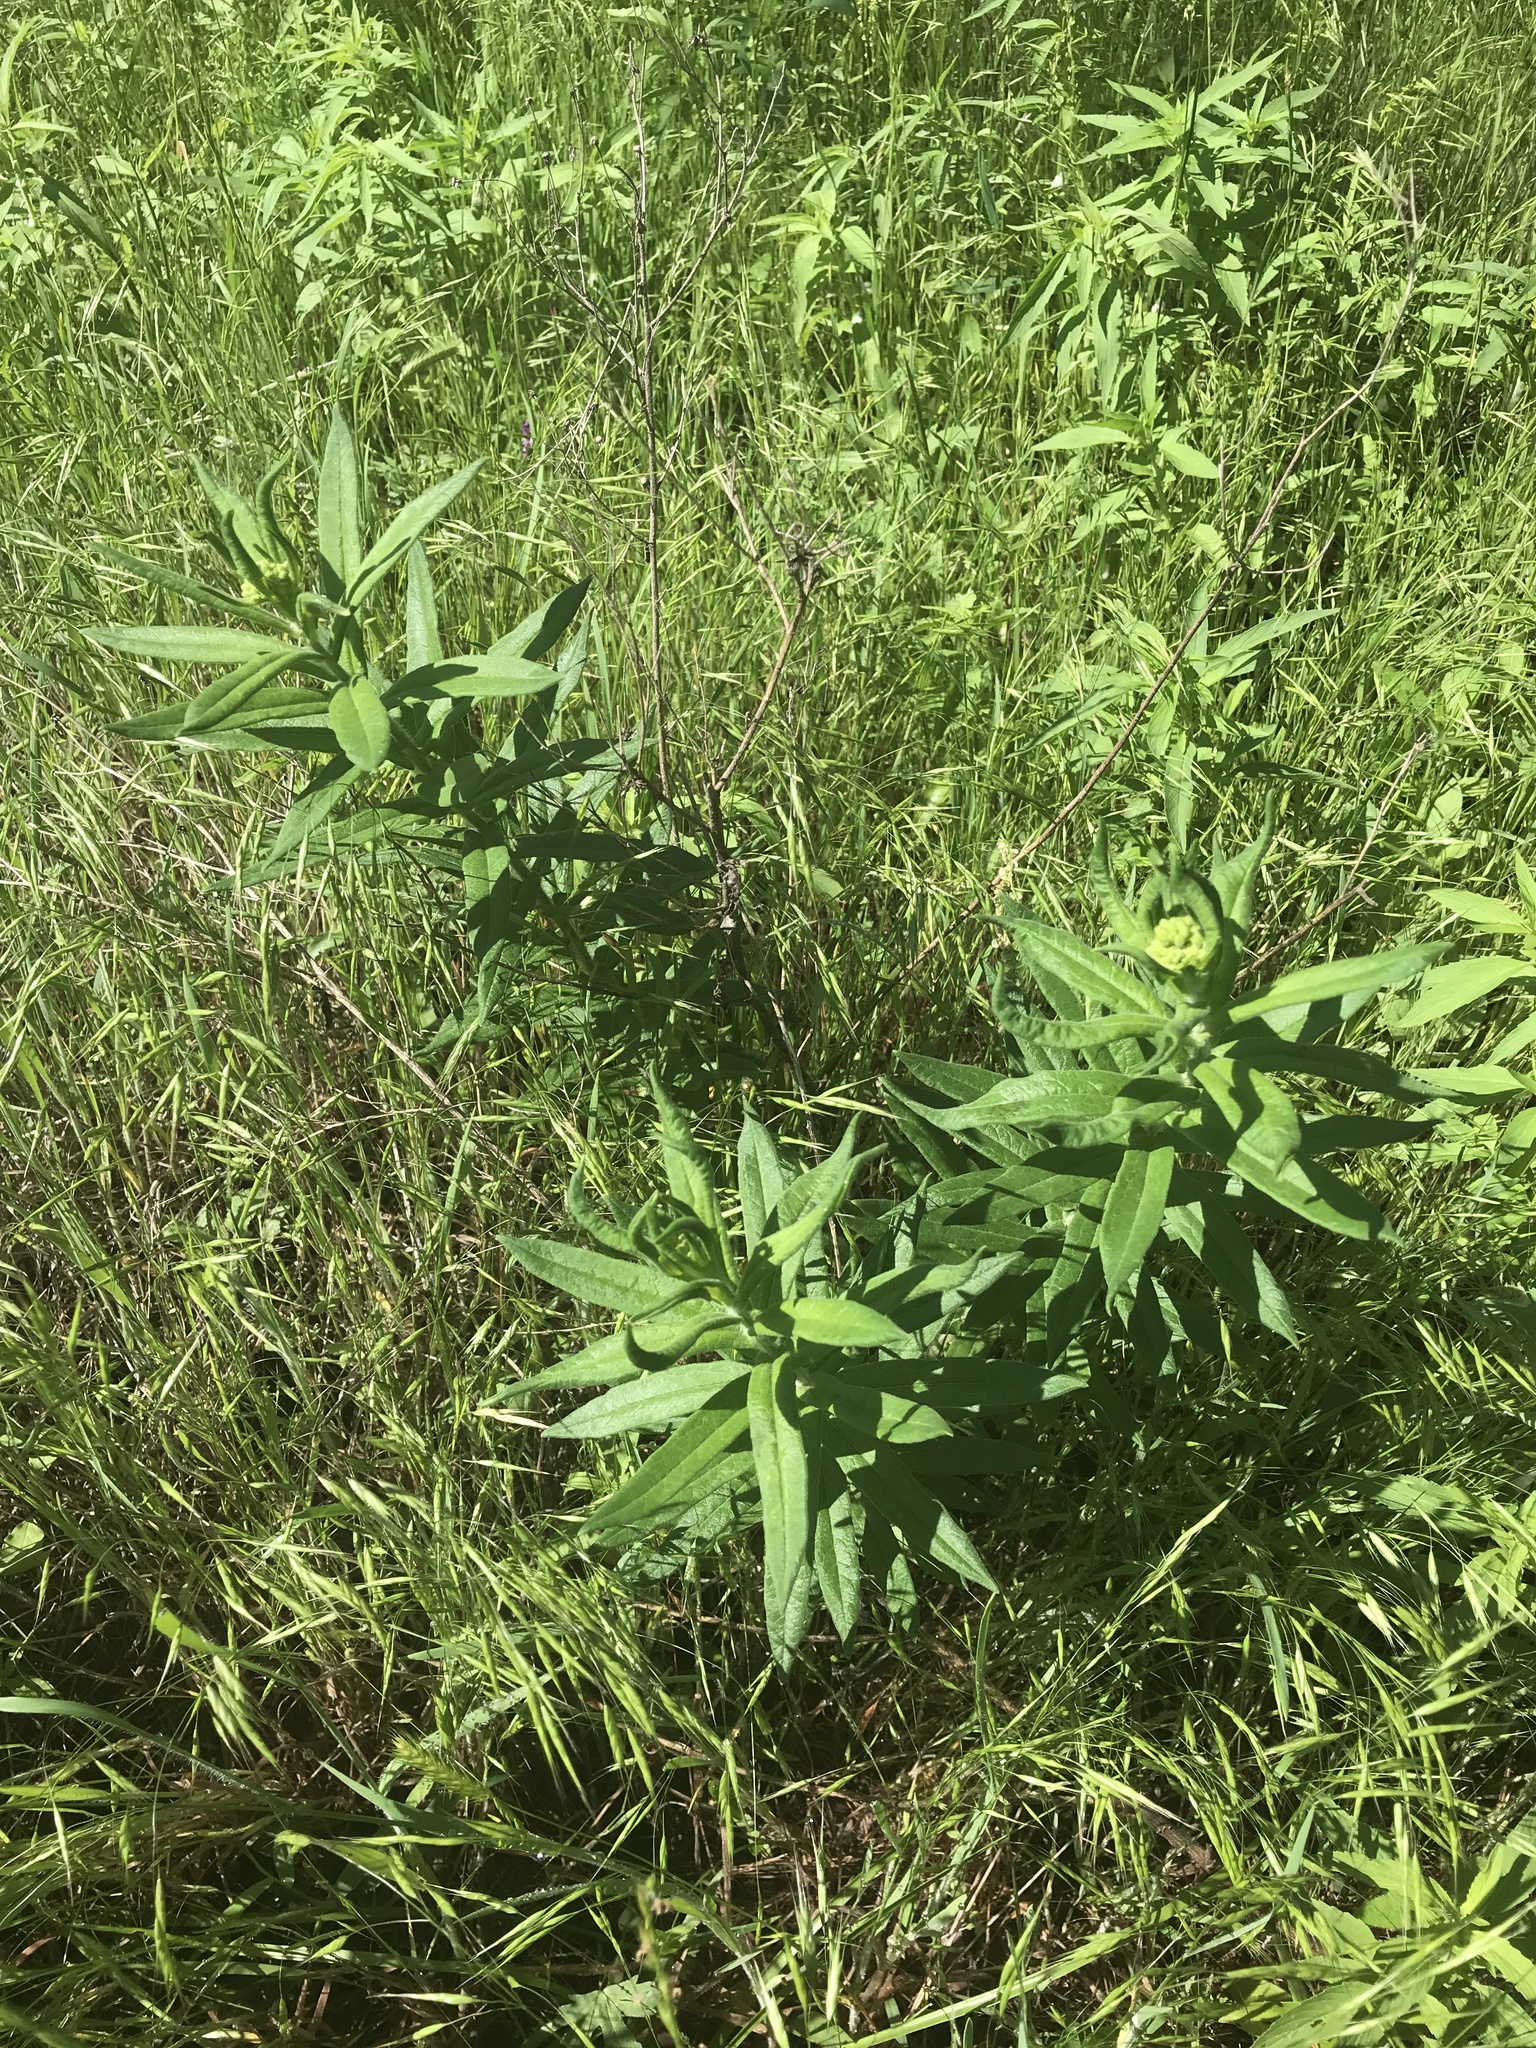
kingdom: Plantae
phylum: Tracheophyta
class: Magnoliopsida
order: Gentianales
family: Apocynaceae
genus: Asclepias
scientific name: Asclepias tuberosa
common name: Butterfly milkweed
